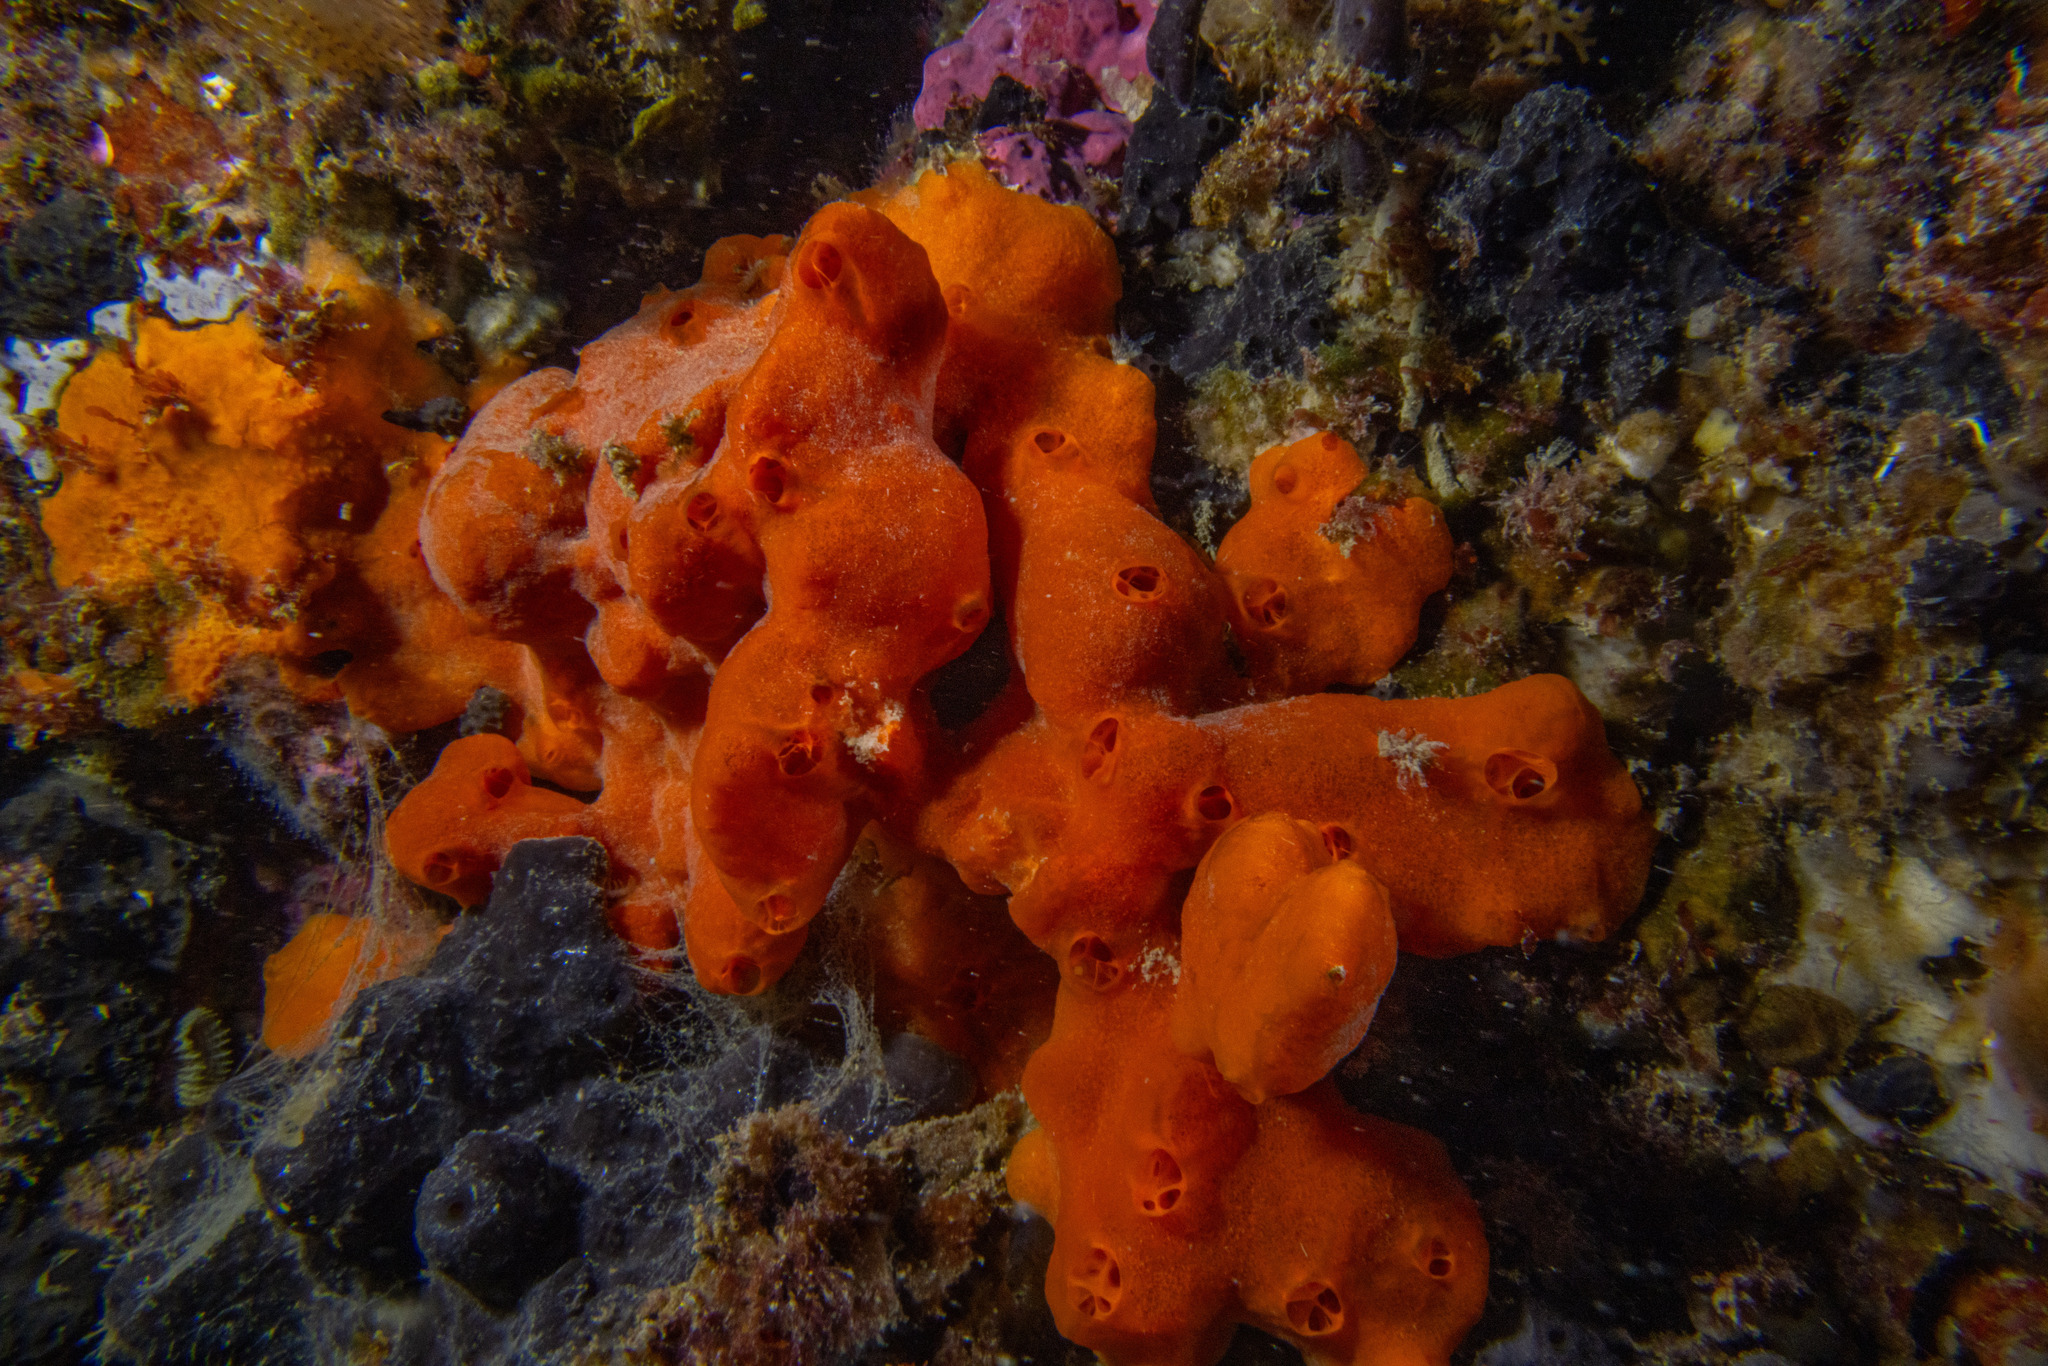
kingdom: Animalia
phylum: Porifera
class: Demospongiae
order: Poecilosclerida
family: Microcionidae
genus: Clathria
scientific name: Clathria macrotoxa
